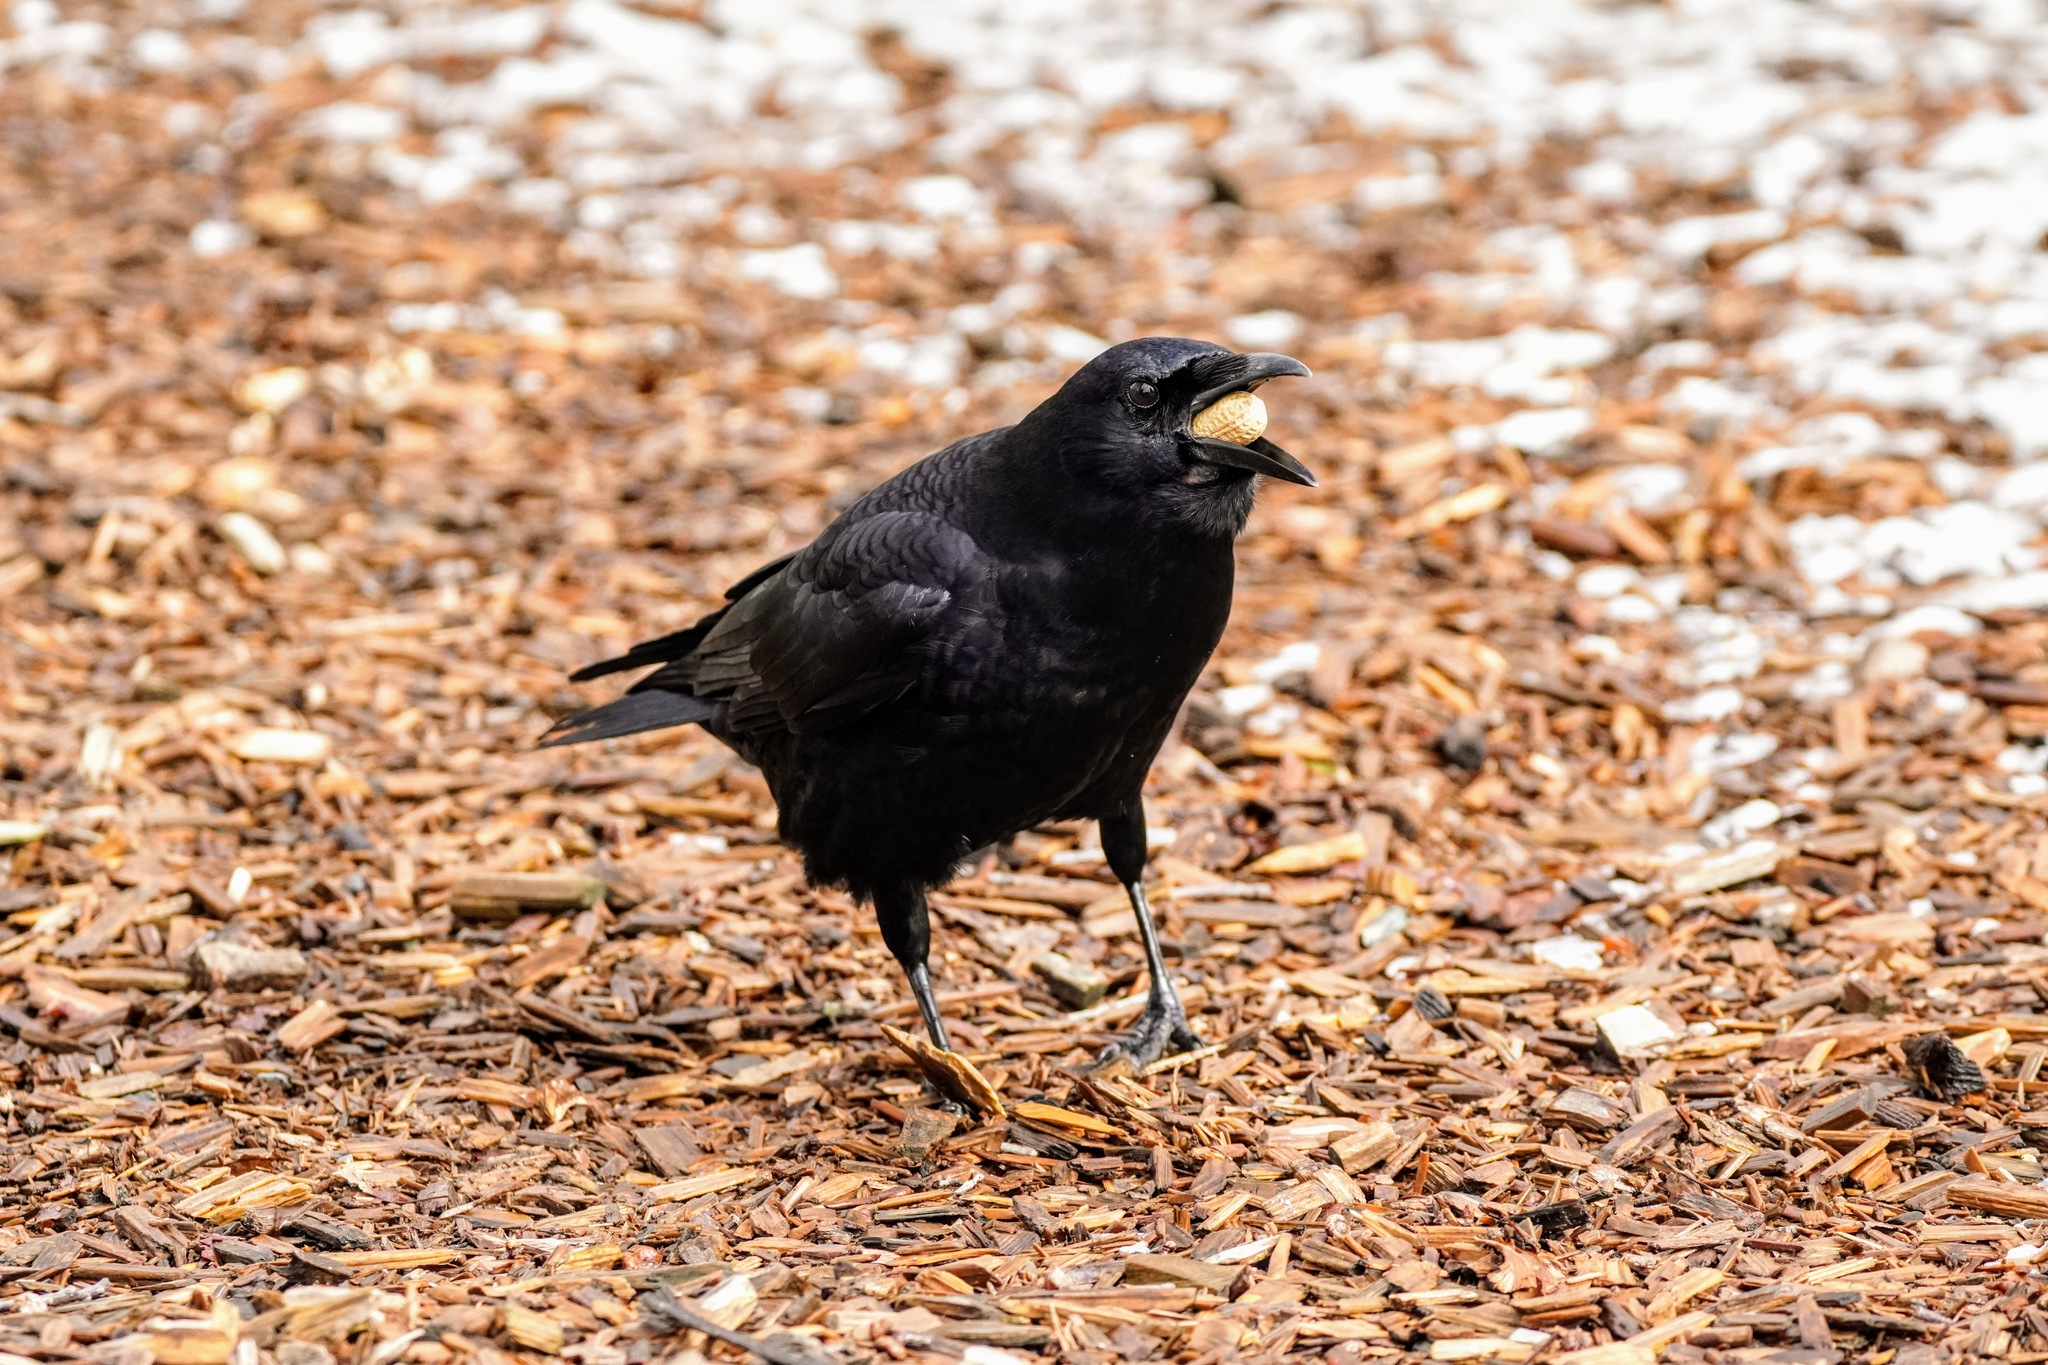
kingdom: Animalia
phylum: Chordata
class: Aves
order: Passeriformes
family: Corvidae
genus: Corvus
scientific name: Corvus brachyrhynchos
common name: American crow
